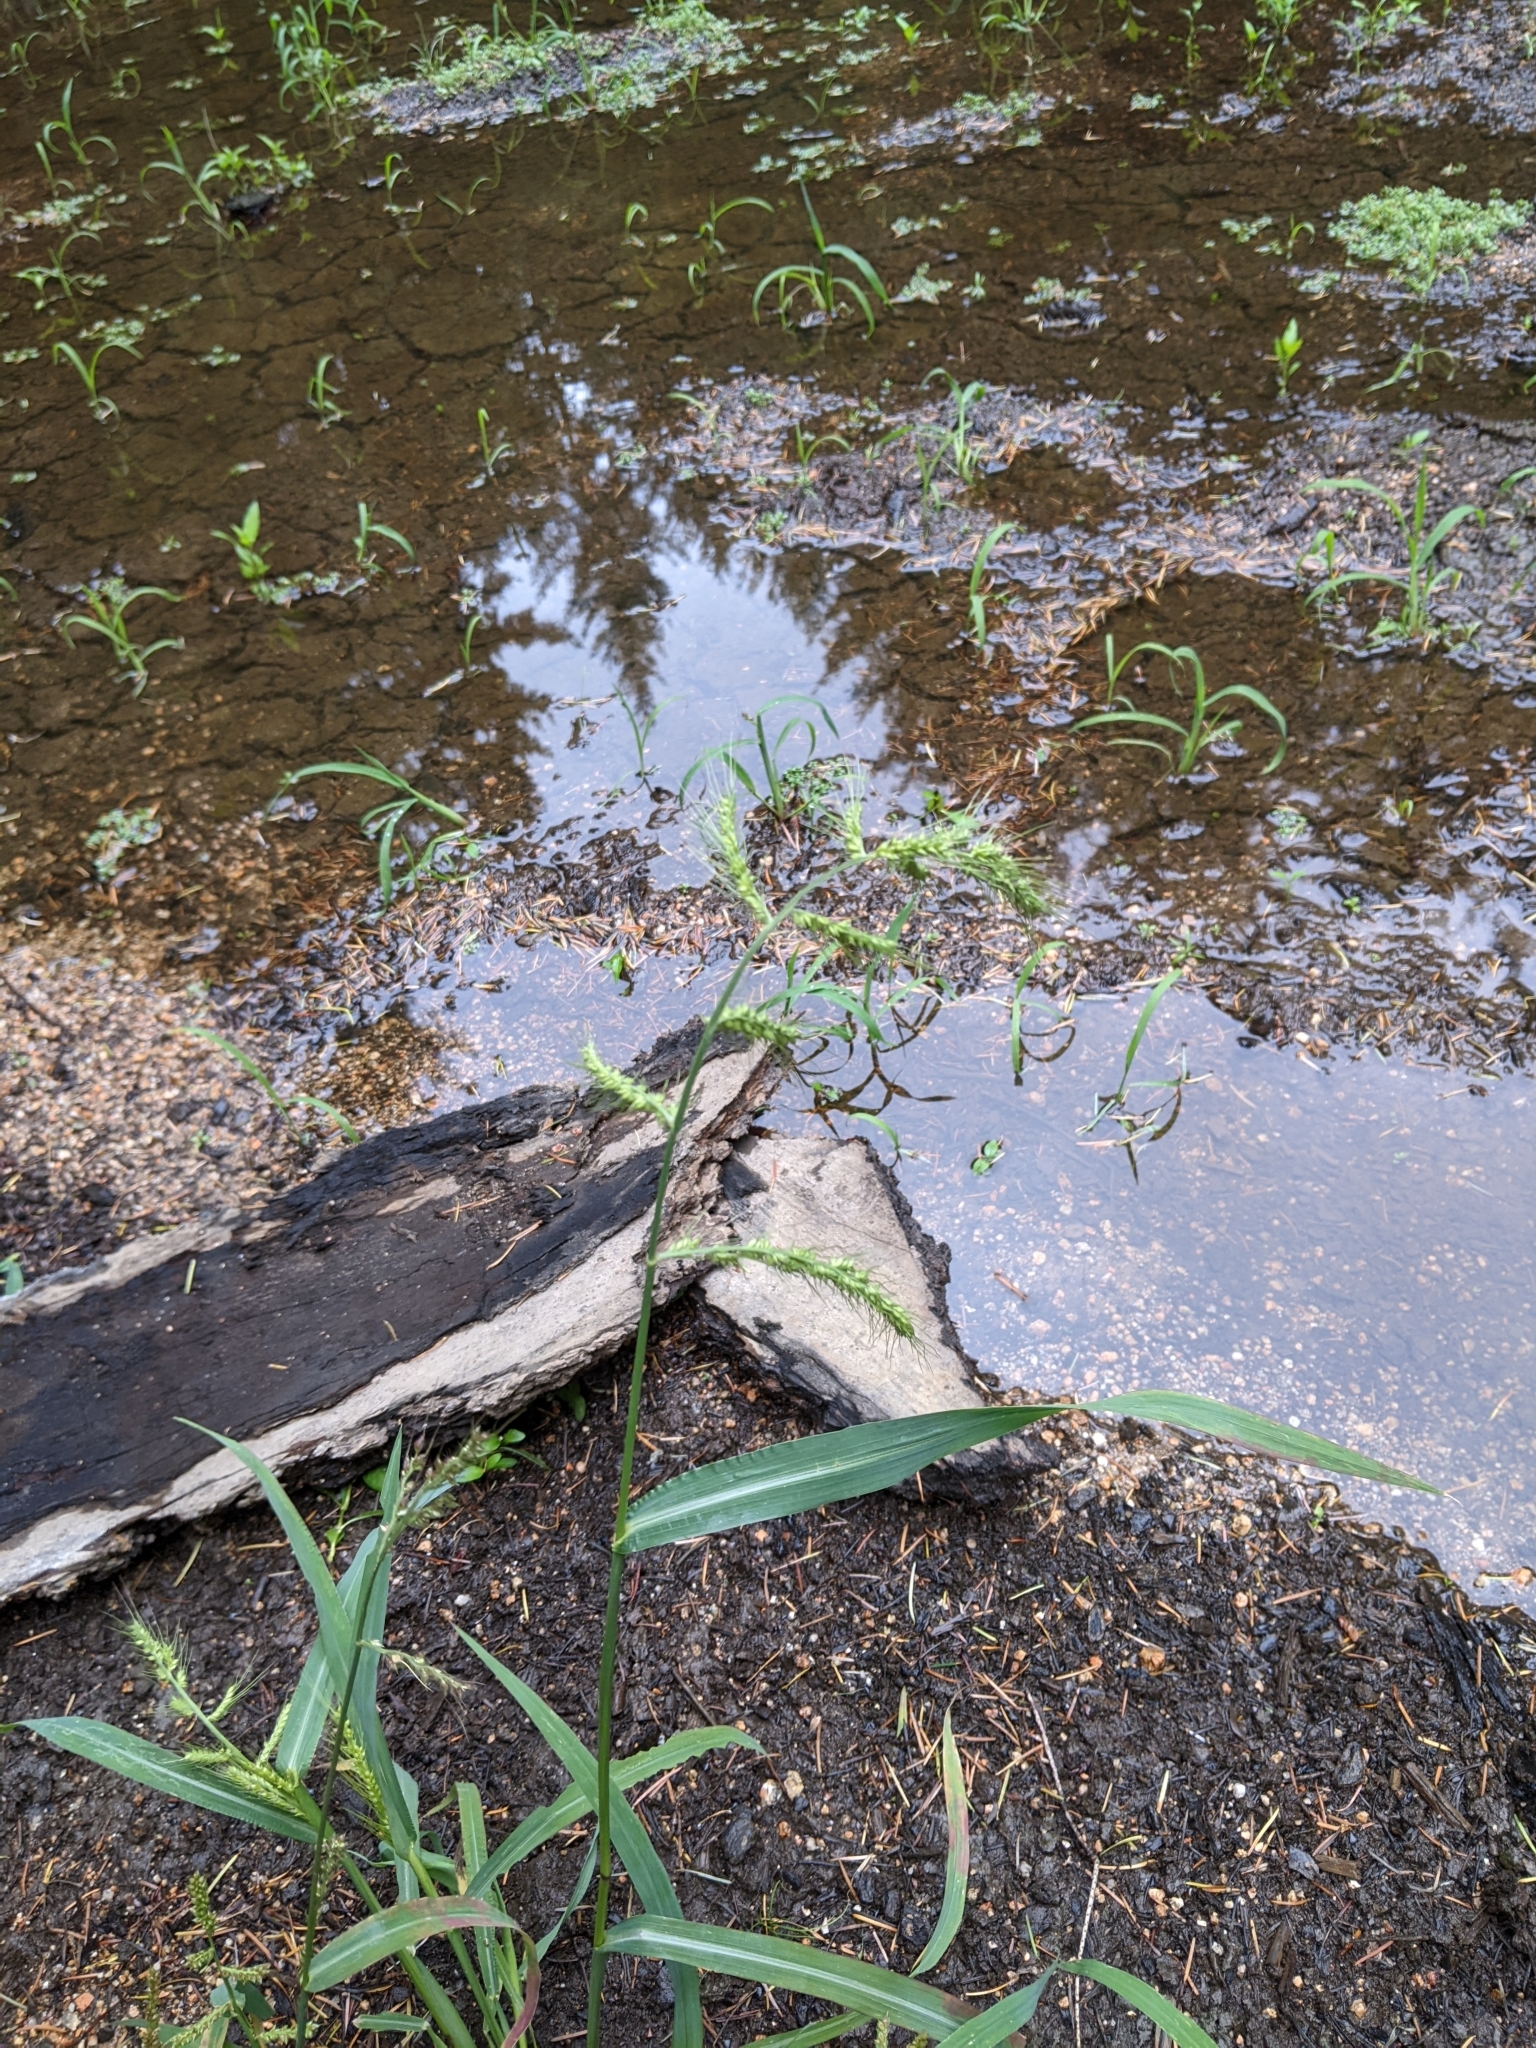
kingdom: Plantae
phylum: Tracheophyta
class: Liliopsida
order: Poales
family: Poaceae
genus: Echinochloa
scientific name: Echinochloa crus-galli
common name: Cockspur
